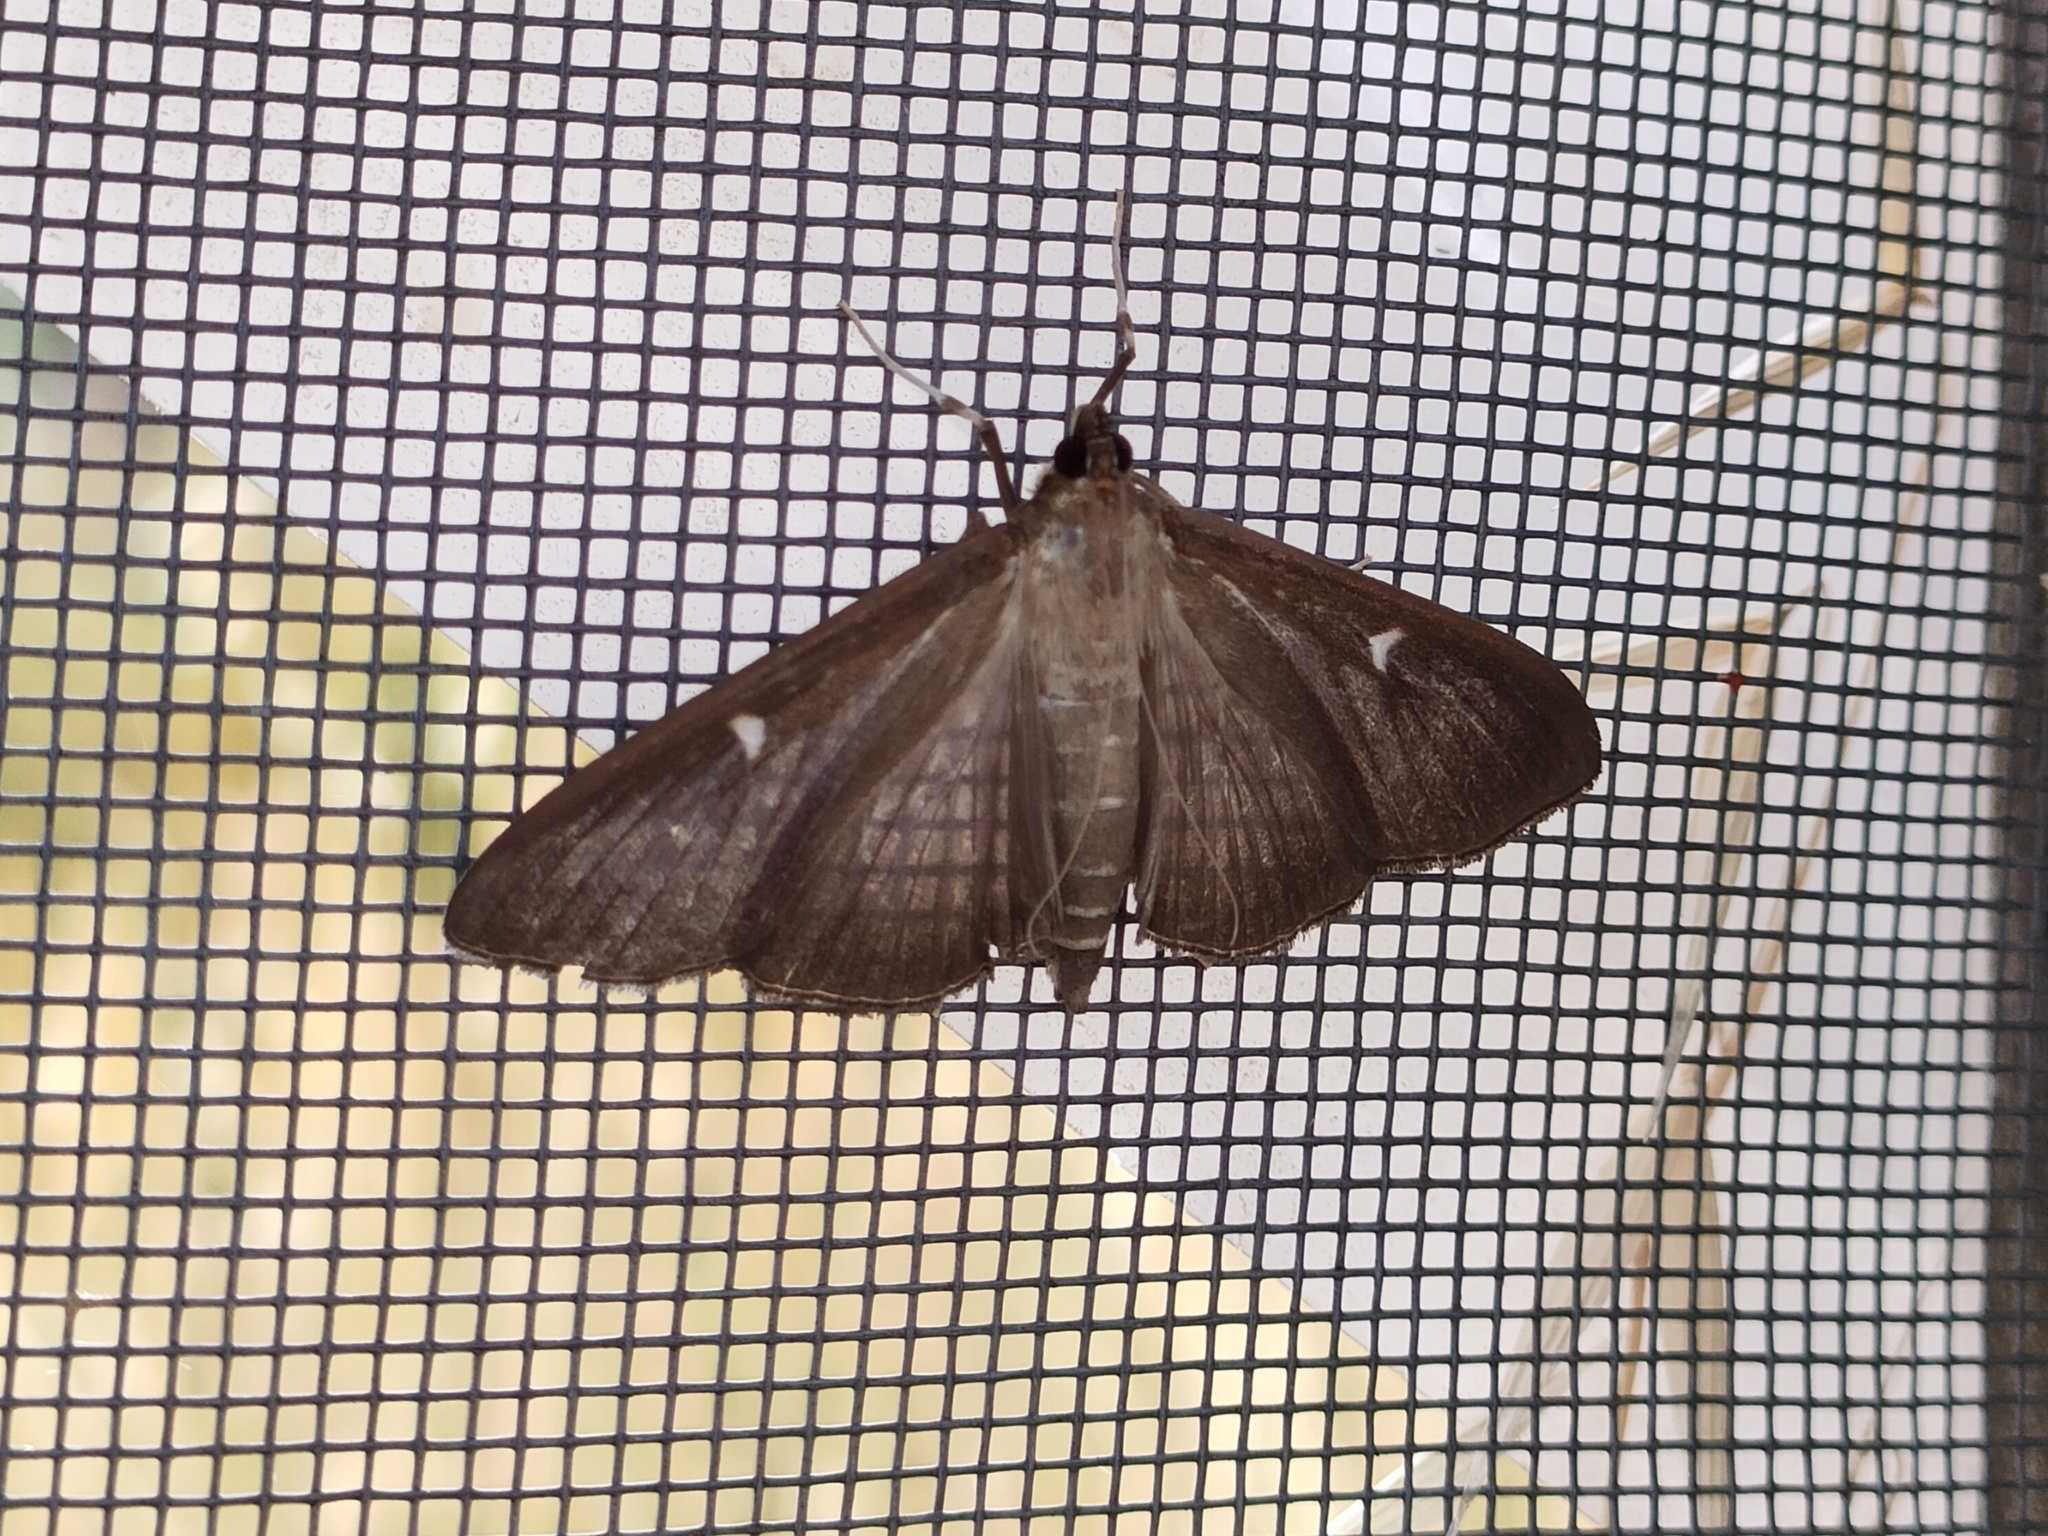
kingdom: Animalia
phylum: Arthropoda
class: Insecta
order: Lepidoptera
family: Crambidae
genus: Cydalima
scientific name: Cydalima perspectalis
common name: Box tree moth
